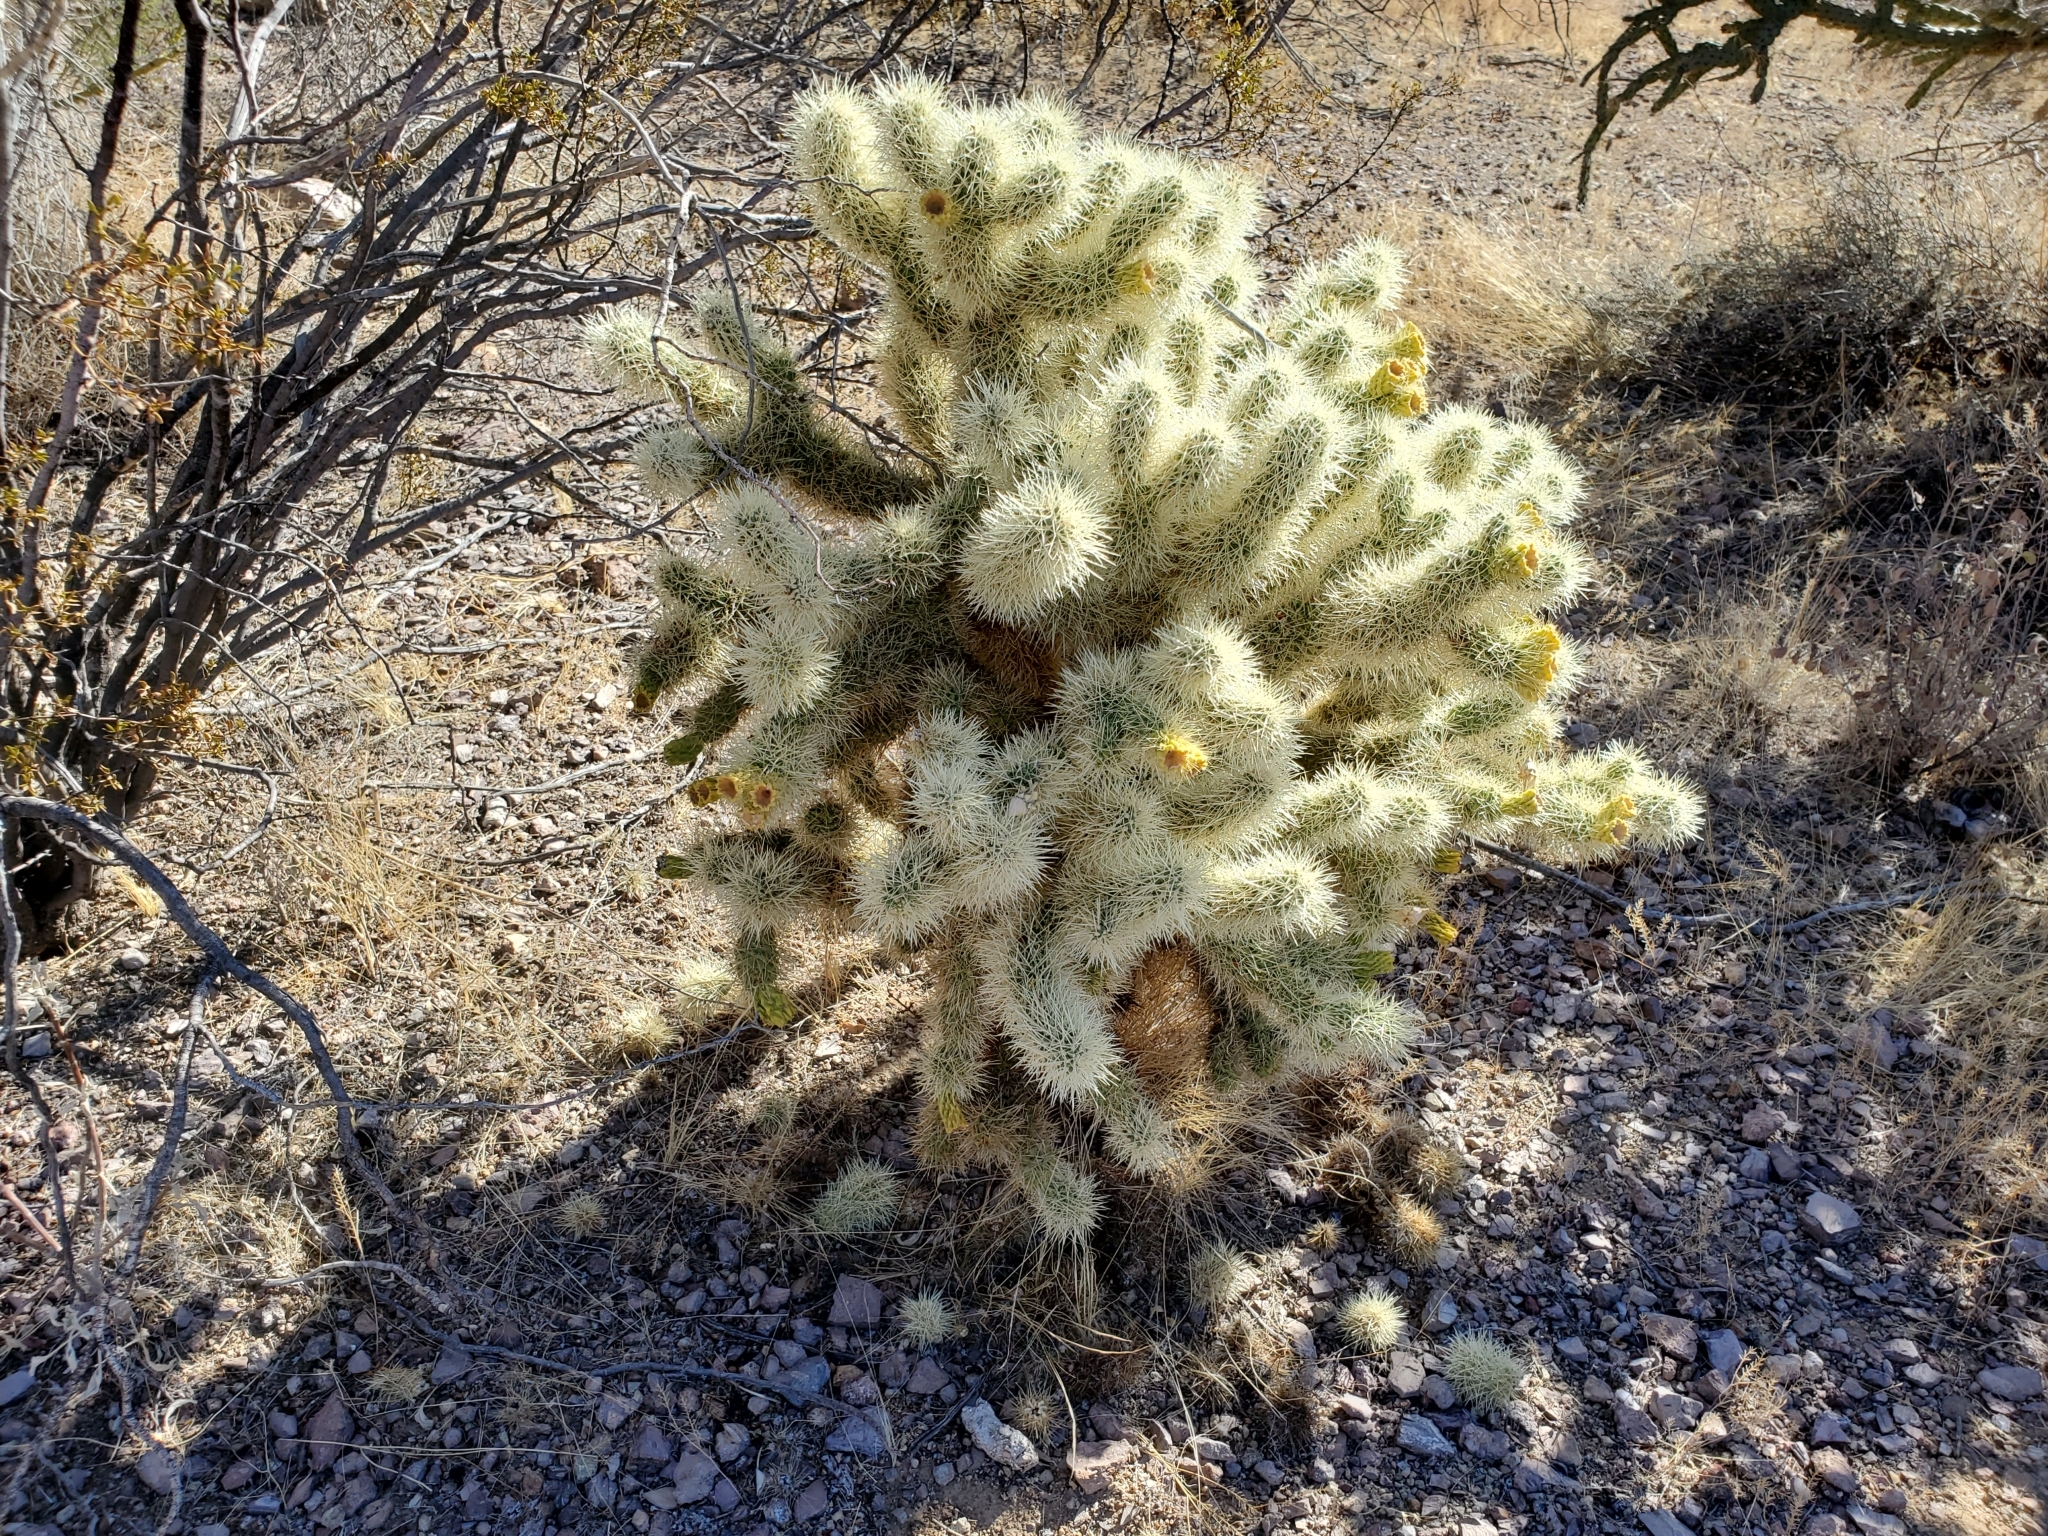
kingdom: Plantae
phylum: Tracheophyta
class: Magnoliopsida
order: Caryophyllales
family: Cactaceae
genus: Cylindropuntia
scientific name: Cylindropuntia fosbergii
